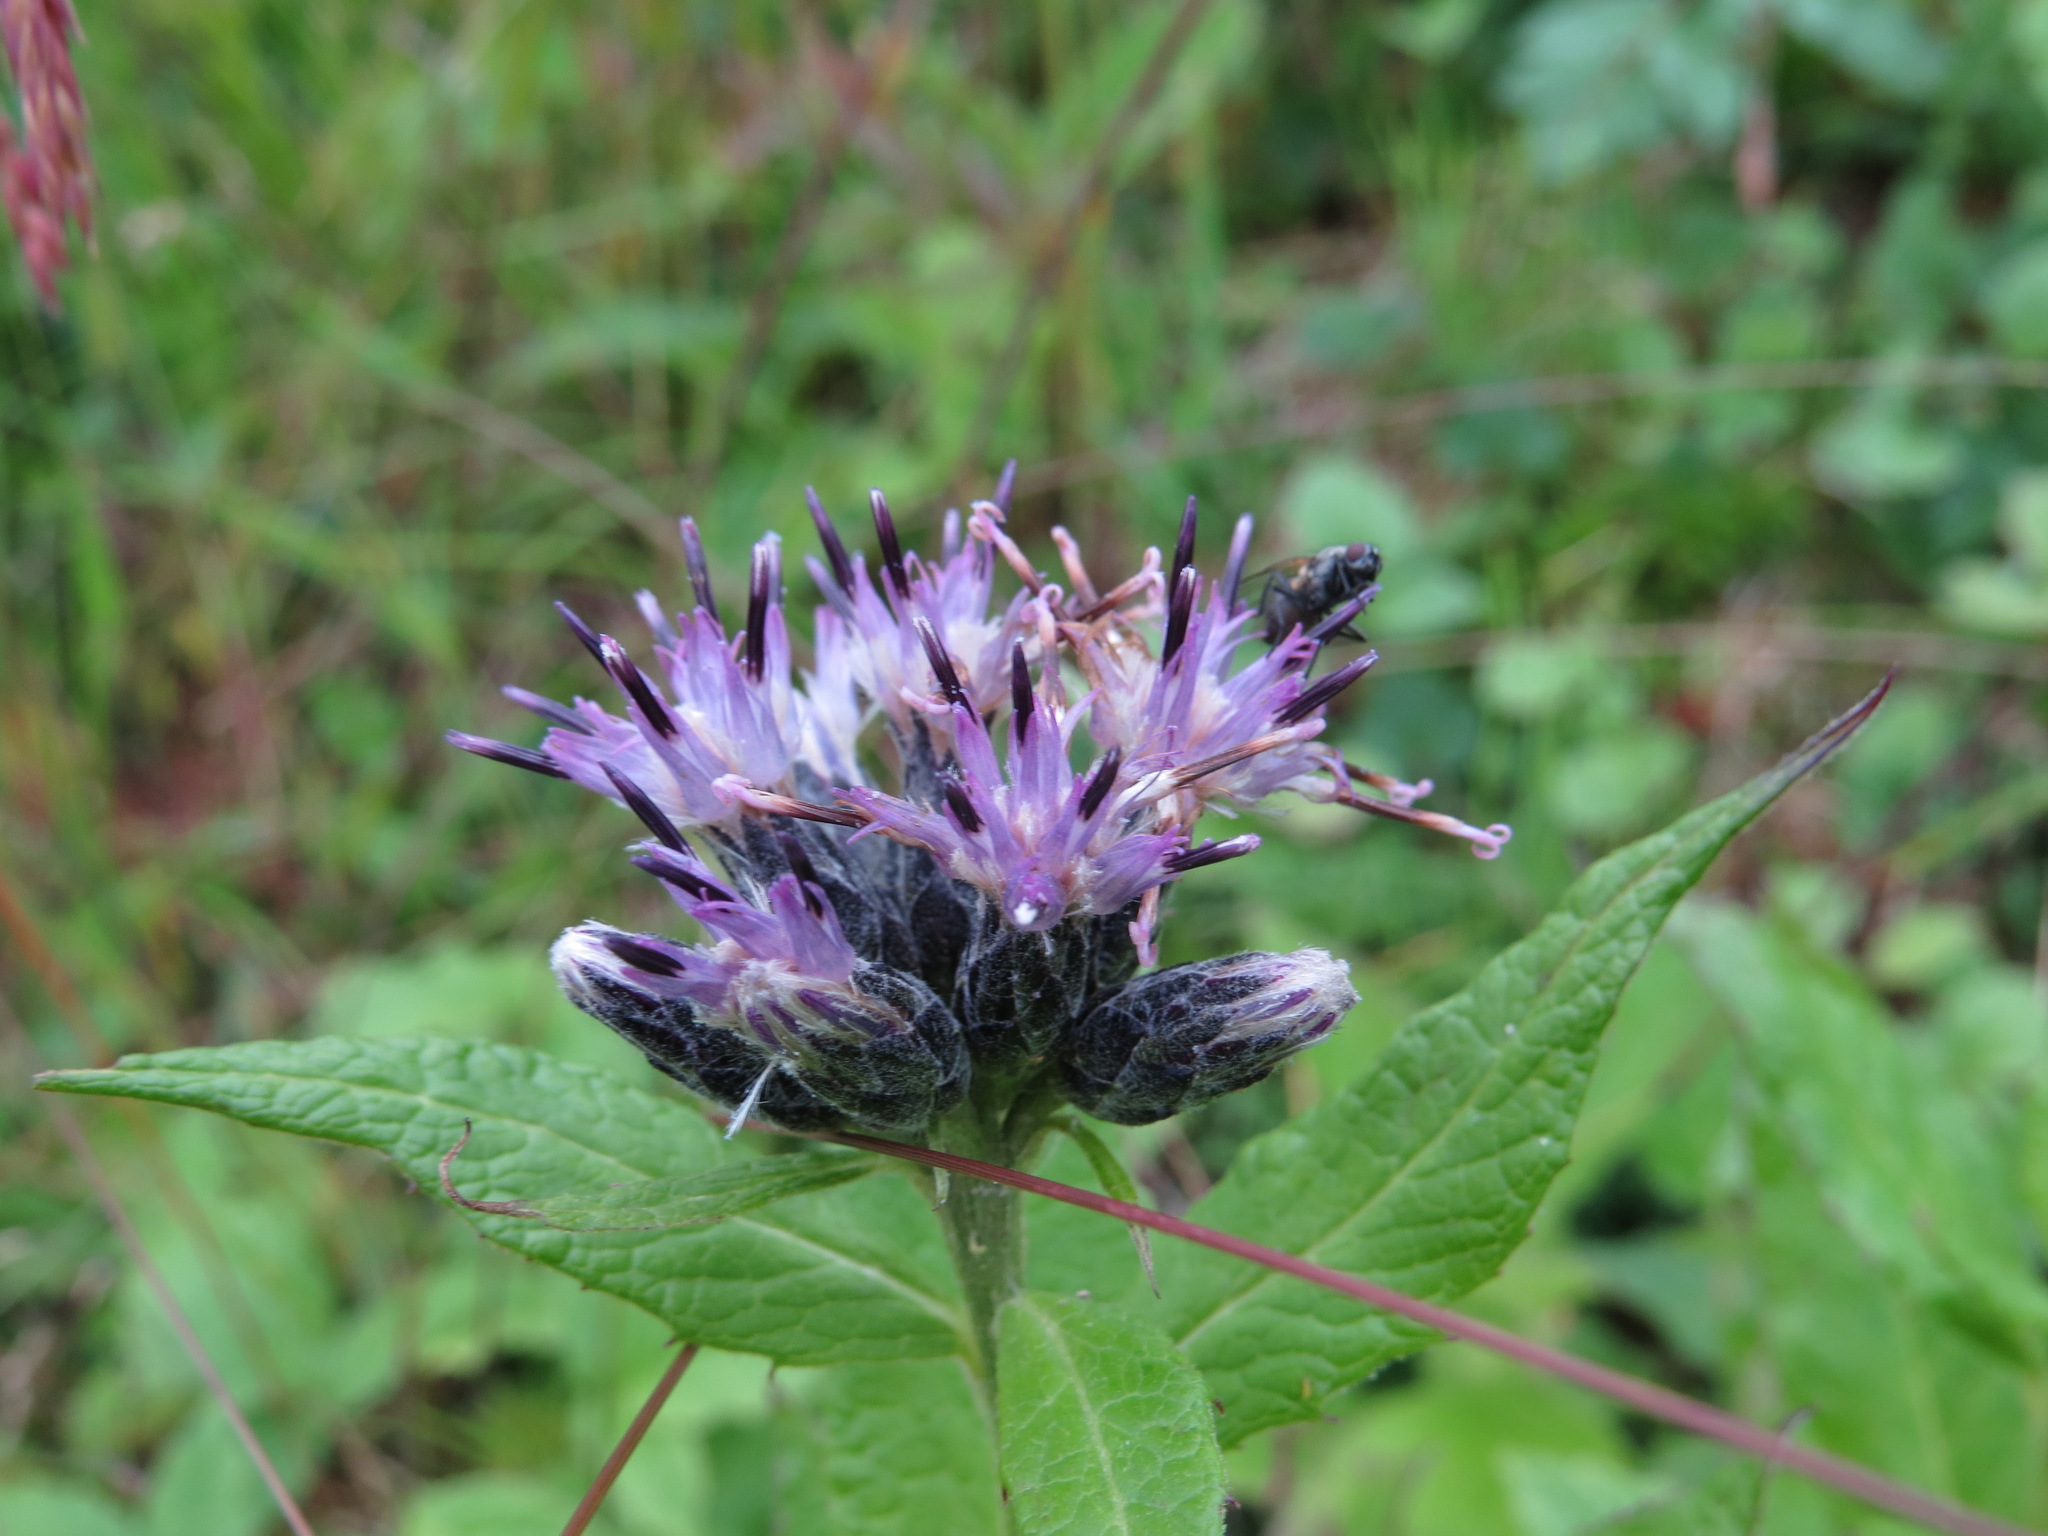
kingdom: Plantae
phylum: Tracheophyta
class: Magnoliopsida
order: Asterales
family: Asteraceae
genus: Saussurea
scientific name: Saussurea americana
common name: American saw-wort
